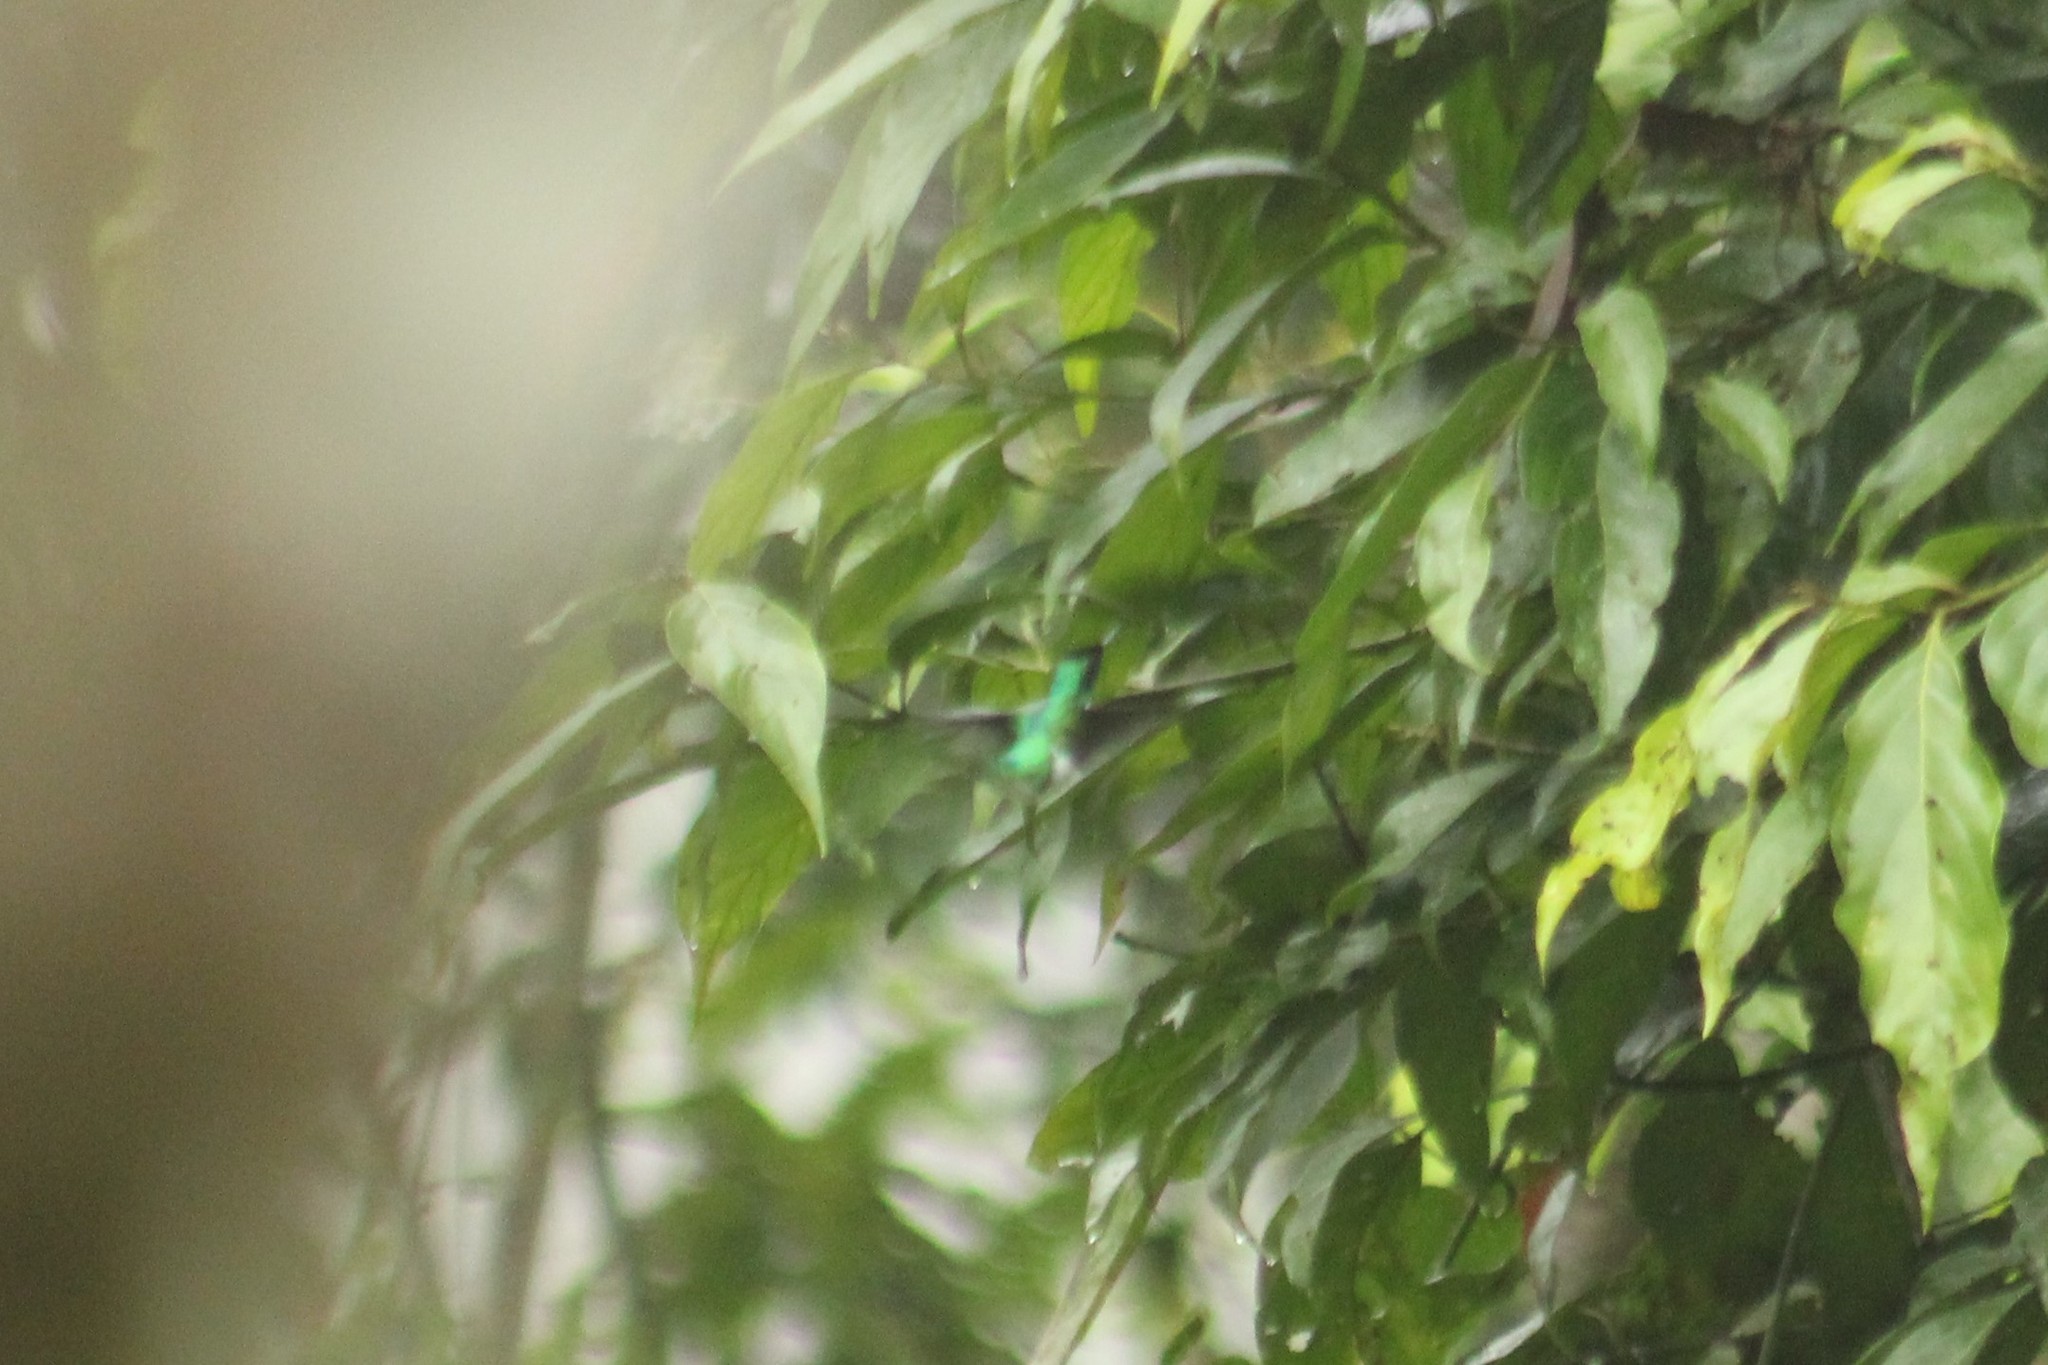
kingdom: Animalia
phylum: Chordata
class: Aves
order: Apodiformes
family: Trochilidae
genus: Heliothryx
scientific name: Heliothryx barroti
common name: Purple-crowned fairy
